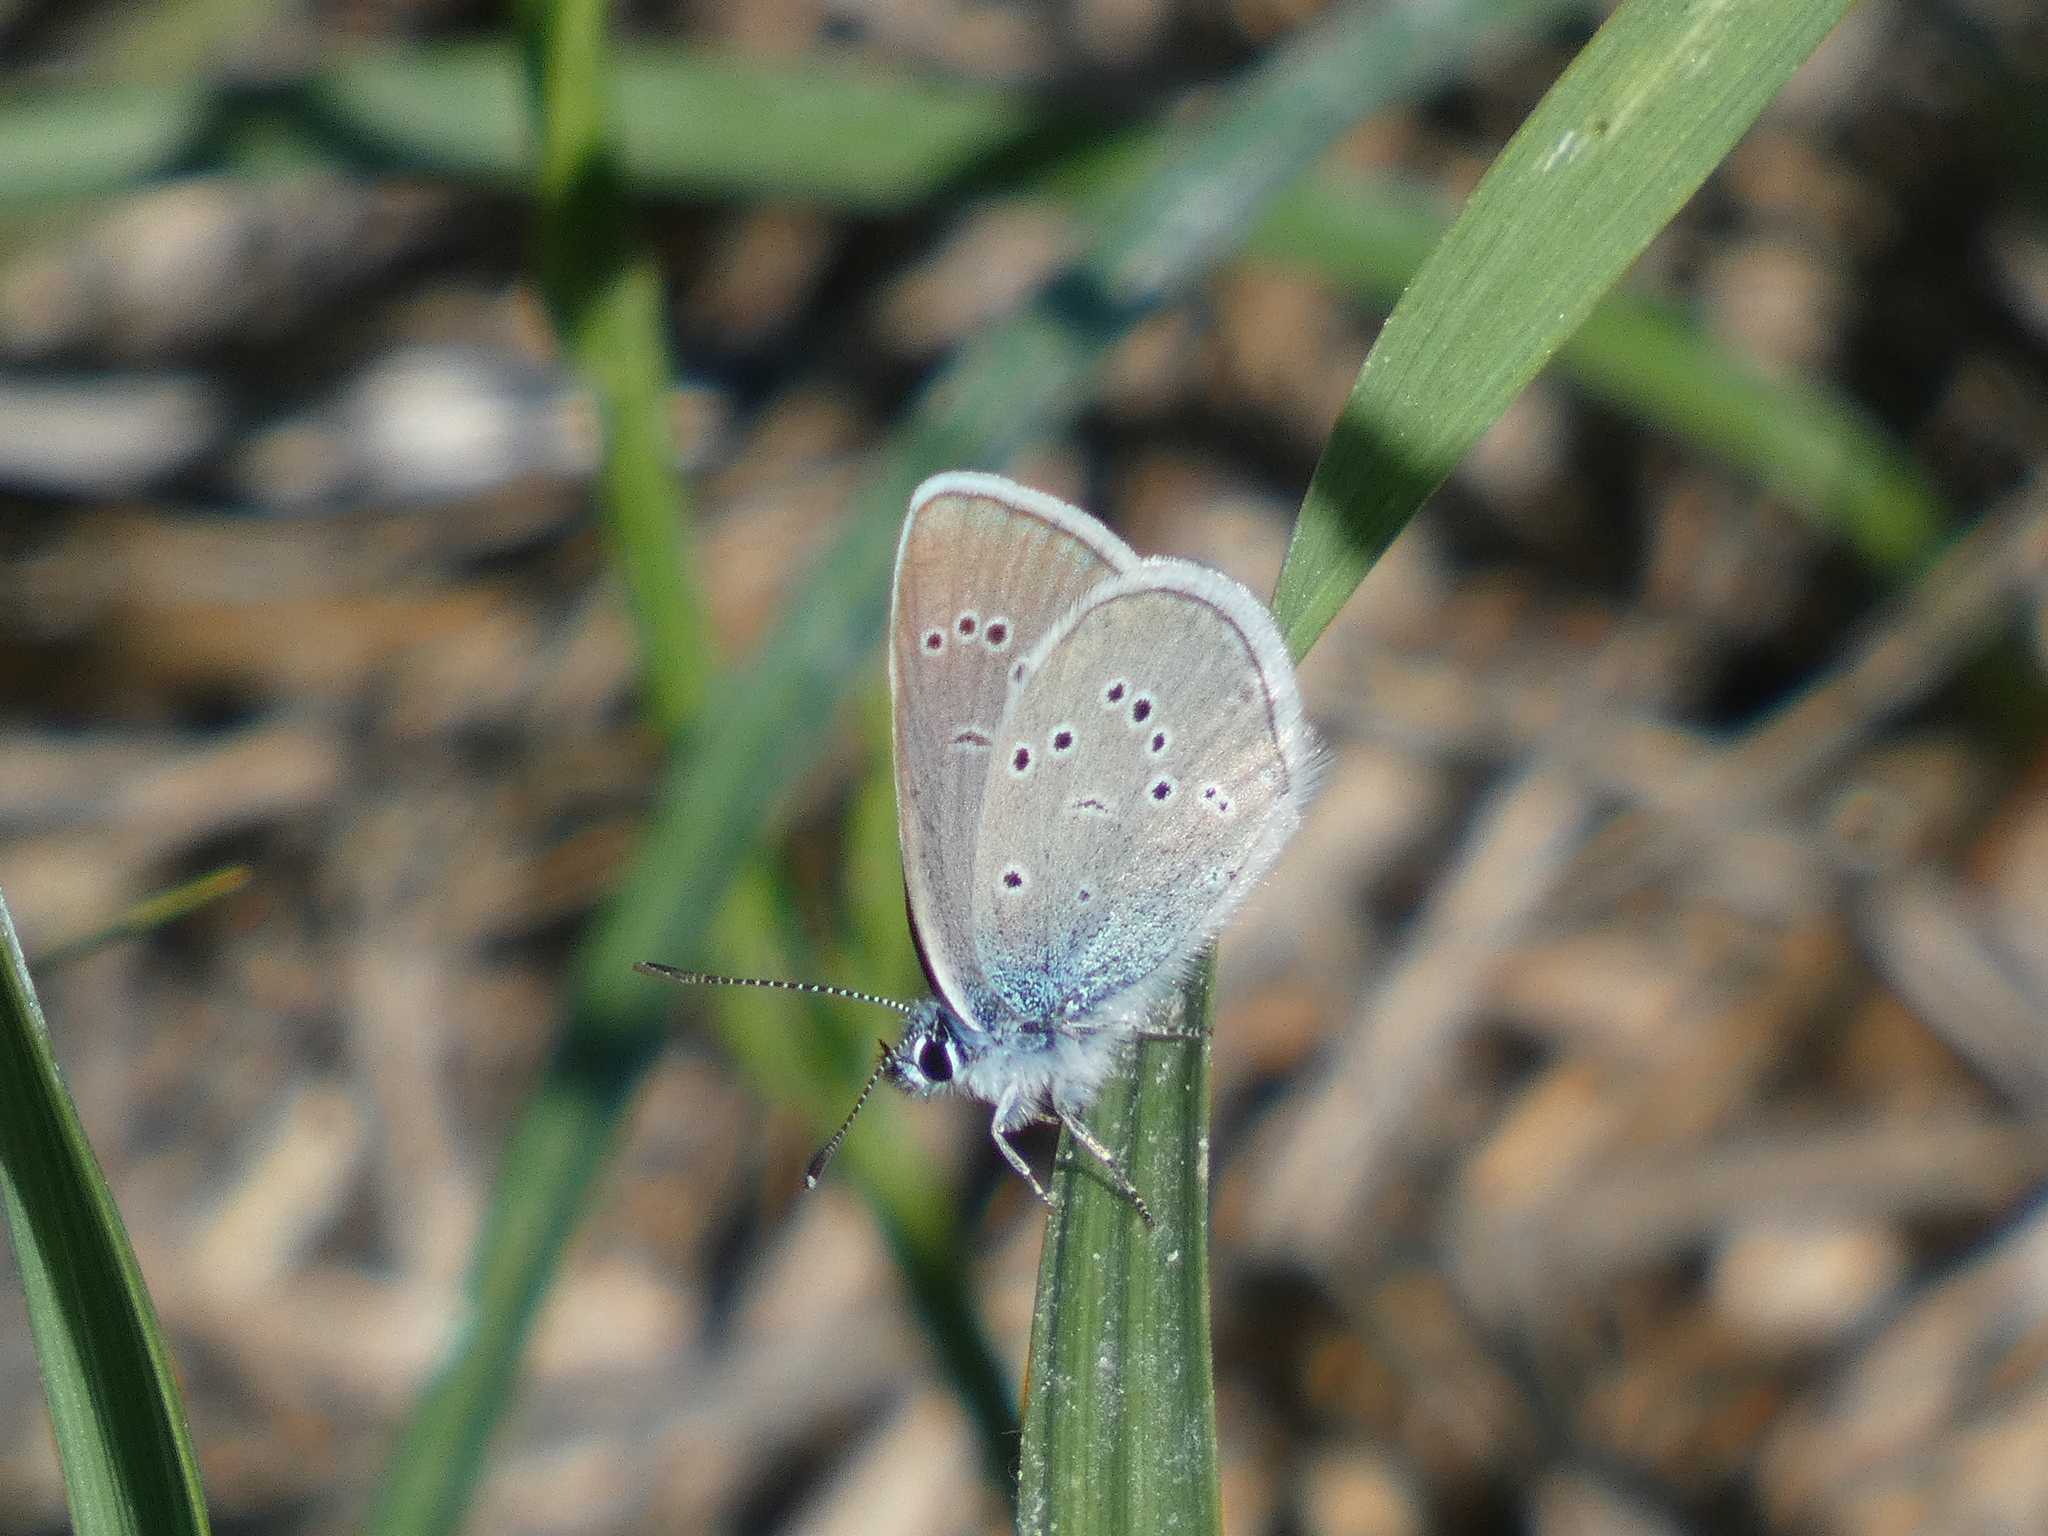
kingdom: Animalia
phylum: Arthropoda
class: Insecta
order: Lepidoptera
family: Lycaenidae
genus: Cyaniris
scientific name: Cyaniris semiargus
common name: Mazarine blue
